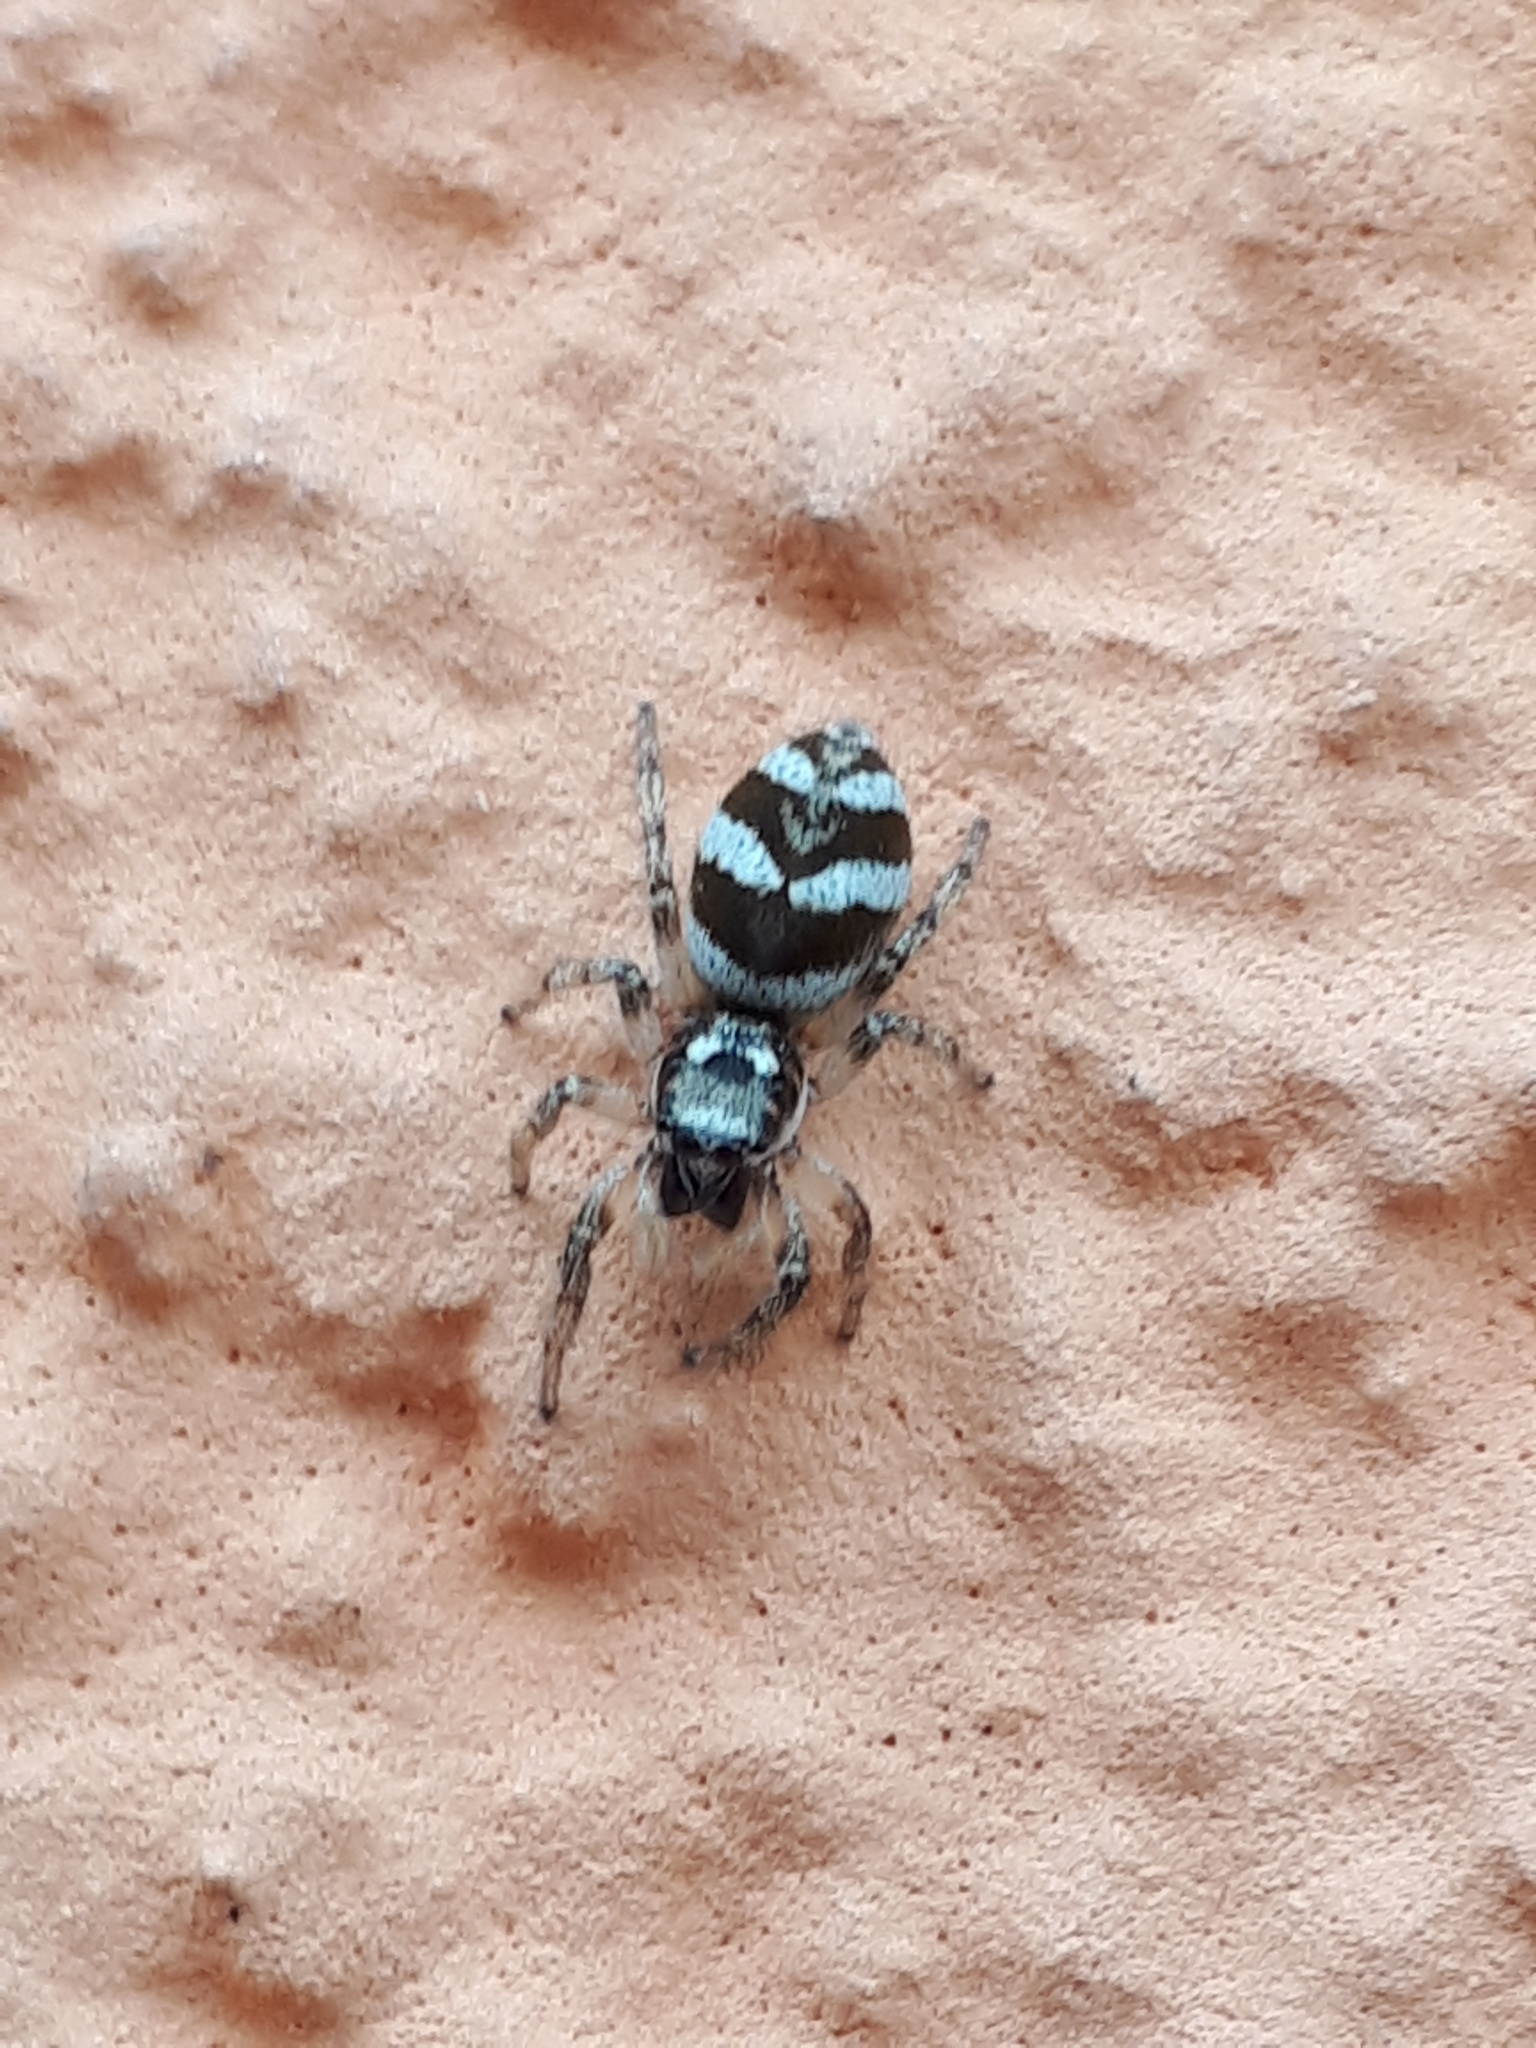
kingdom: Animalia
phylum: Arthropoda
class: Arachnida
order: Araneae
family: Salticidae
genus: Salticus
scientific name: Salticus scenicus
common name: Zebra jumper
